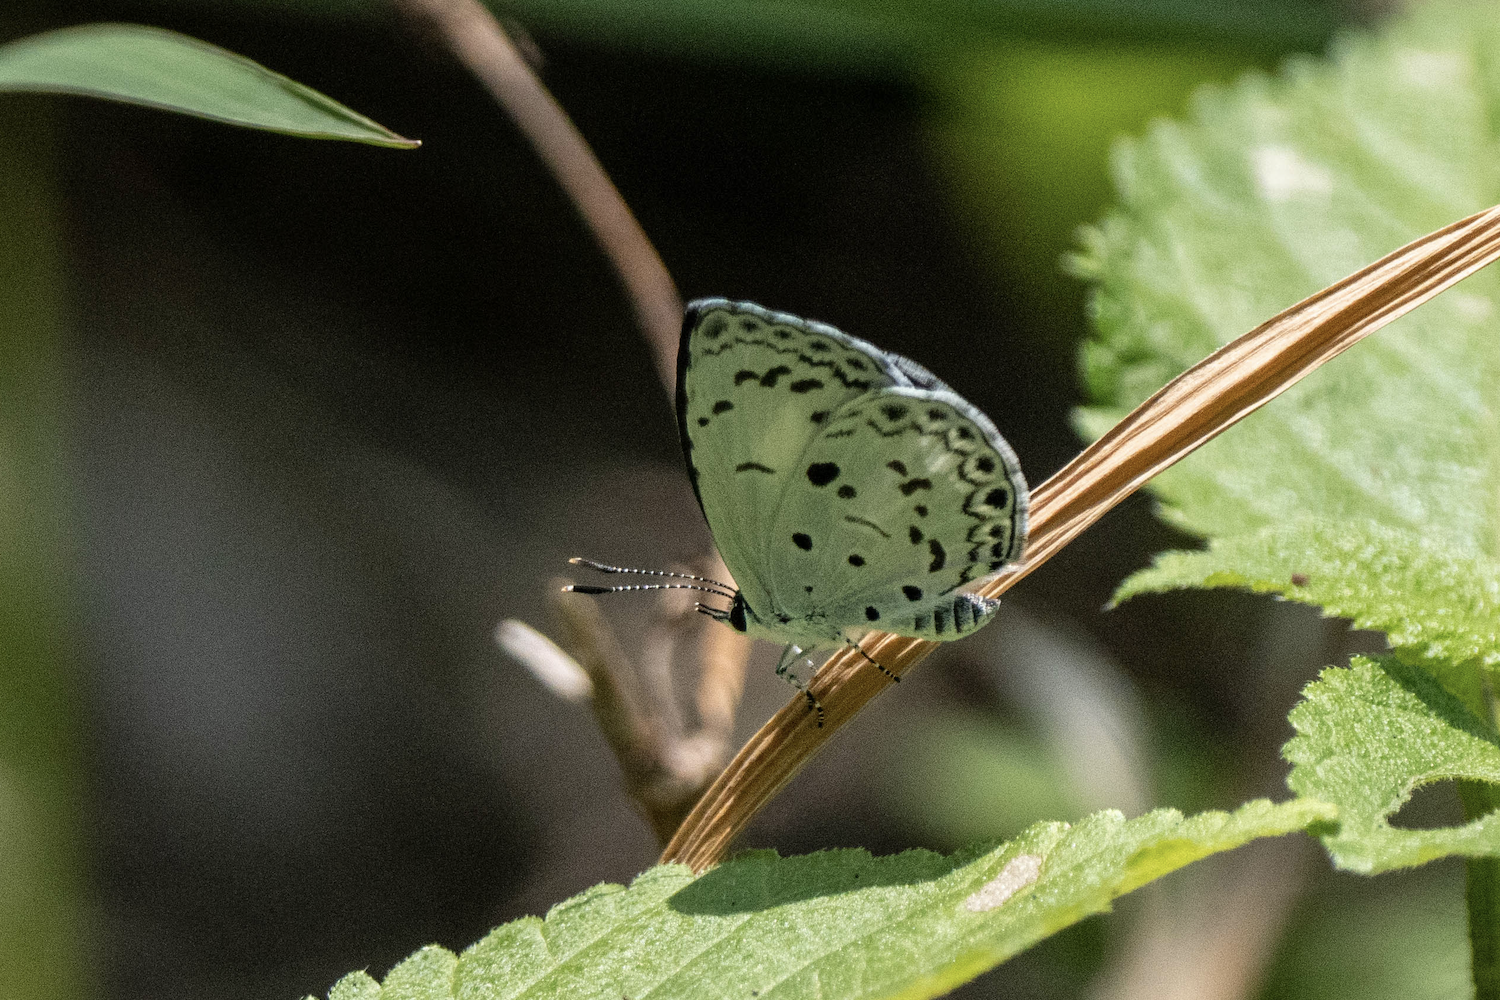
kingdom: Animalia
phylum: Arthropoda
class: Insecta
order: Lepidoptera
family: Lycaenidae
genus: Acytolepis
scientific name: Acytolepis puspa
